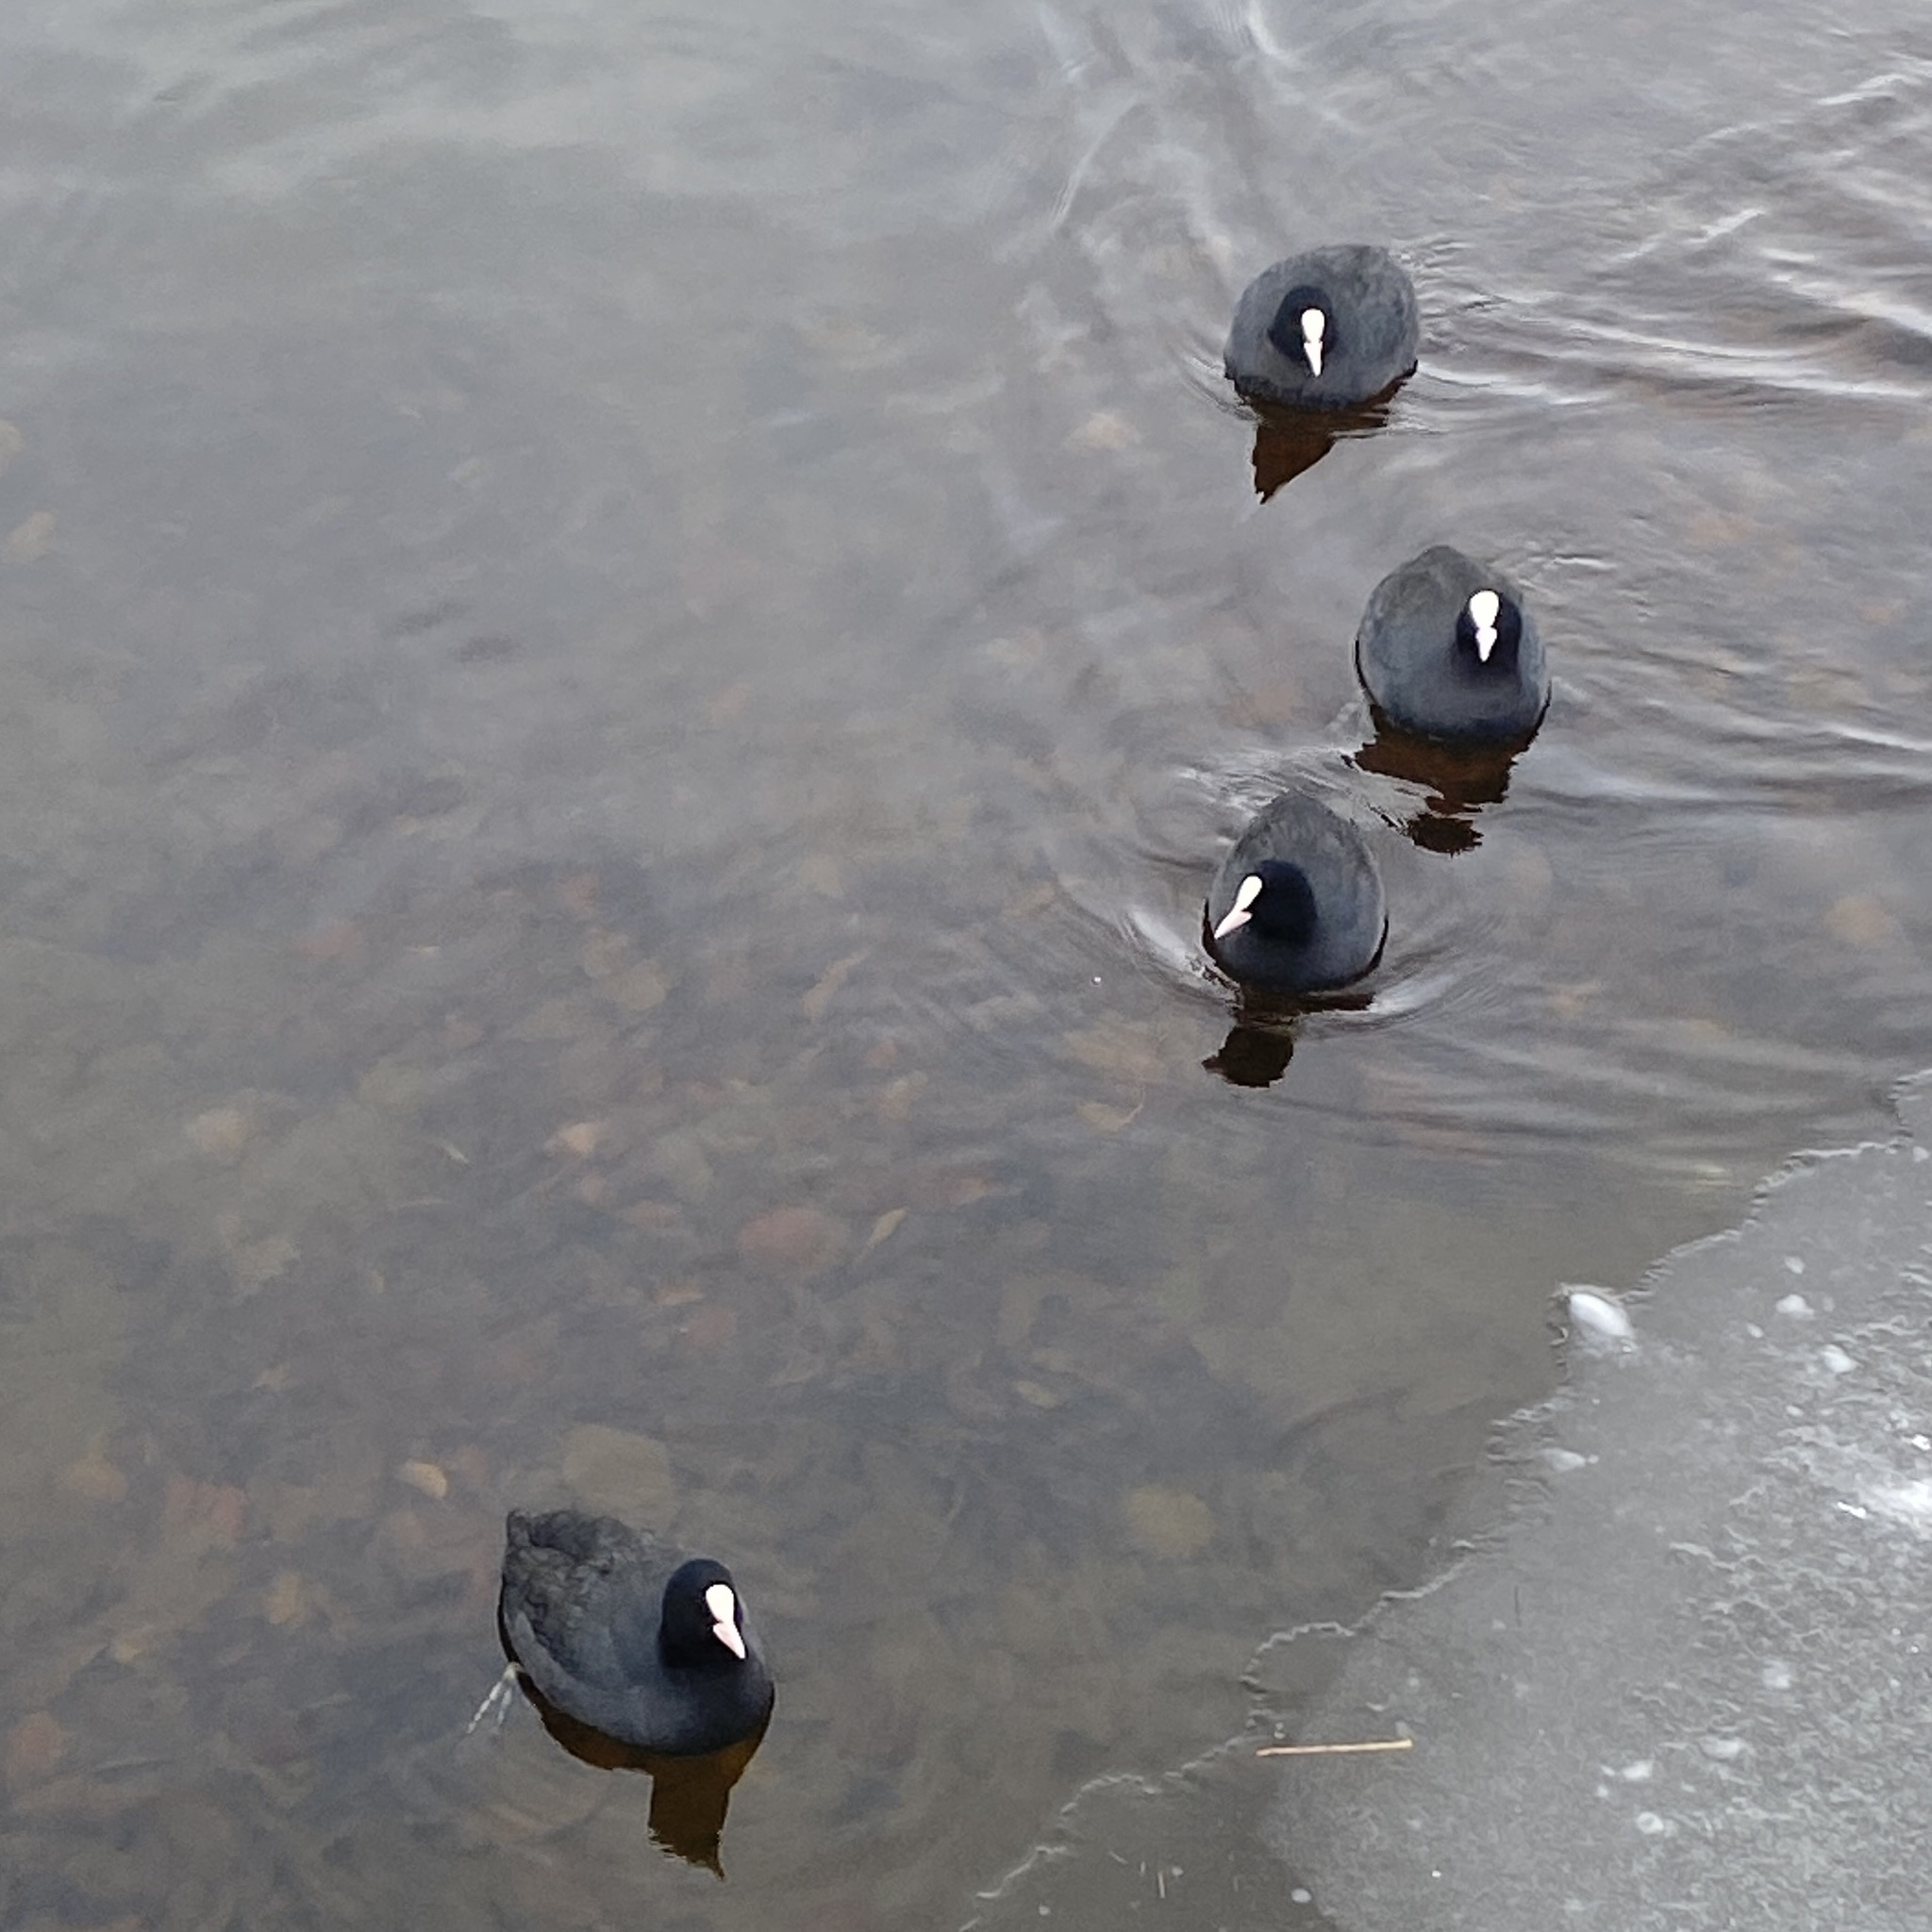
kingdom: Animalia
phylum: Chordata
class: Aves
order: Gruiformes
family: Rallidae
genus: Fulica
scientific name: Fulica atra
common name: Eurasian coot
